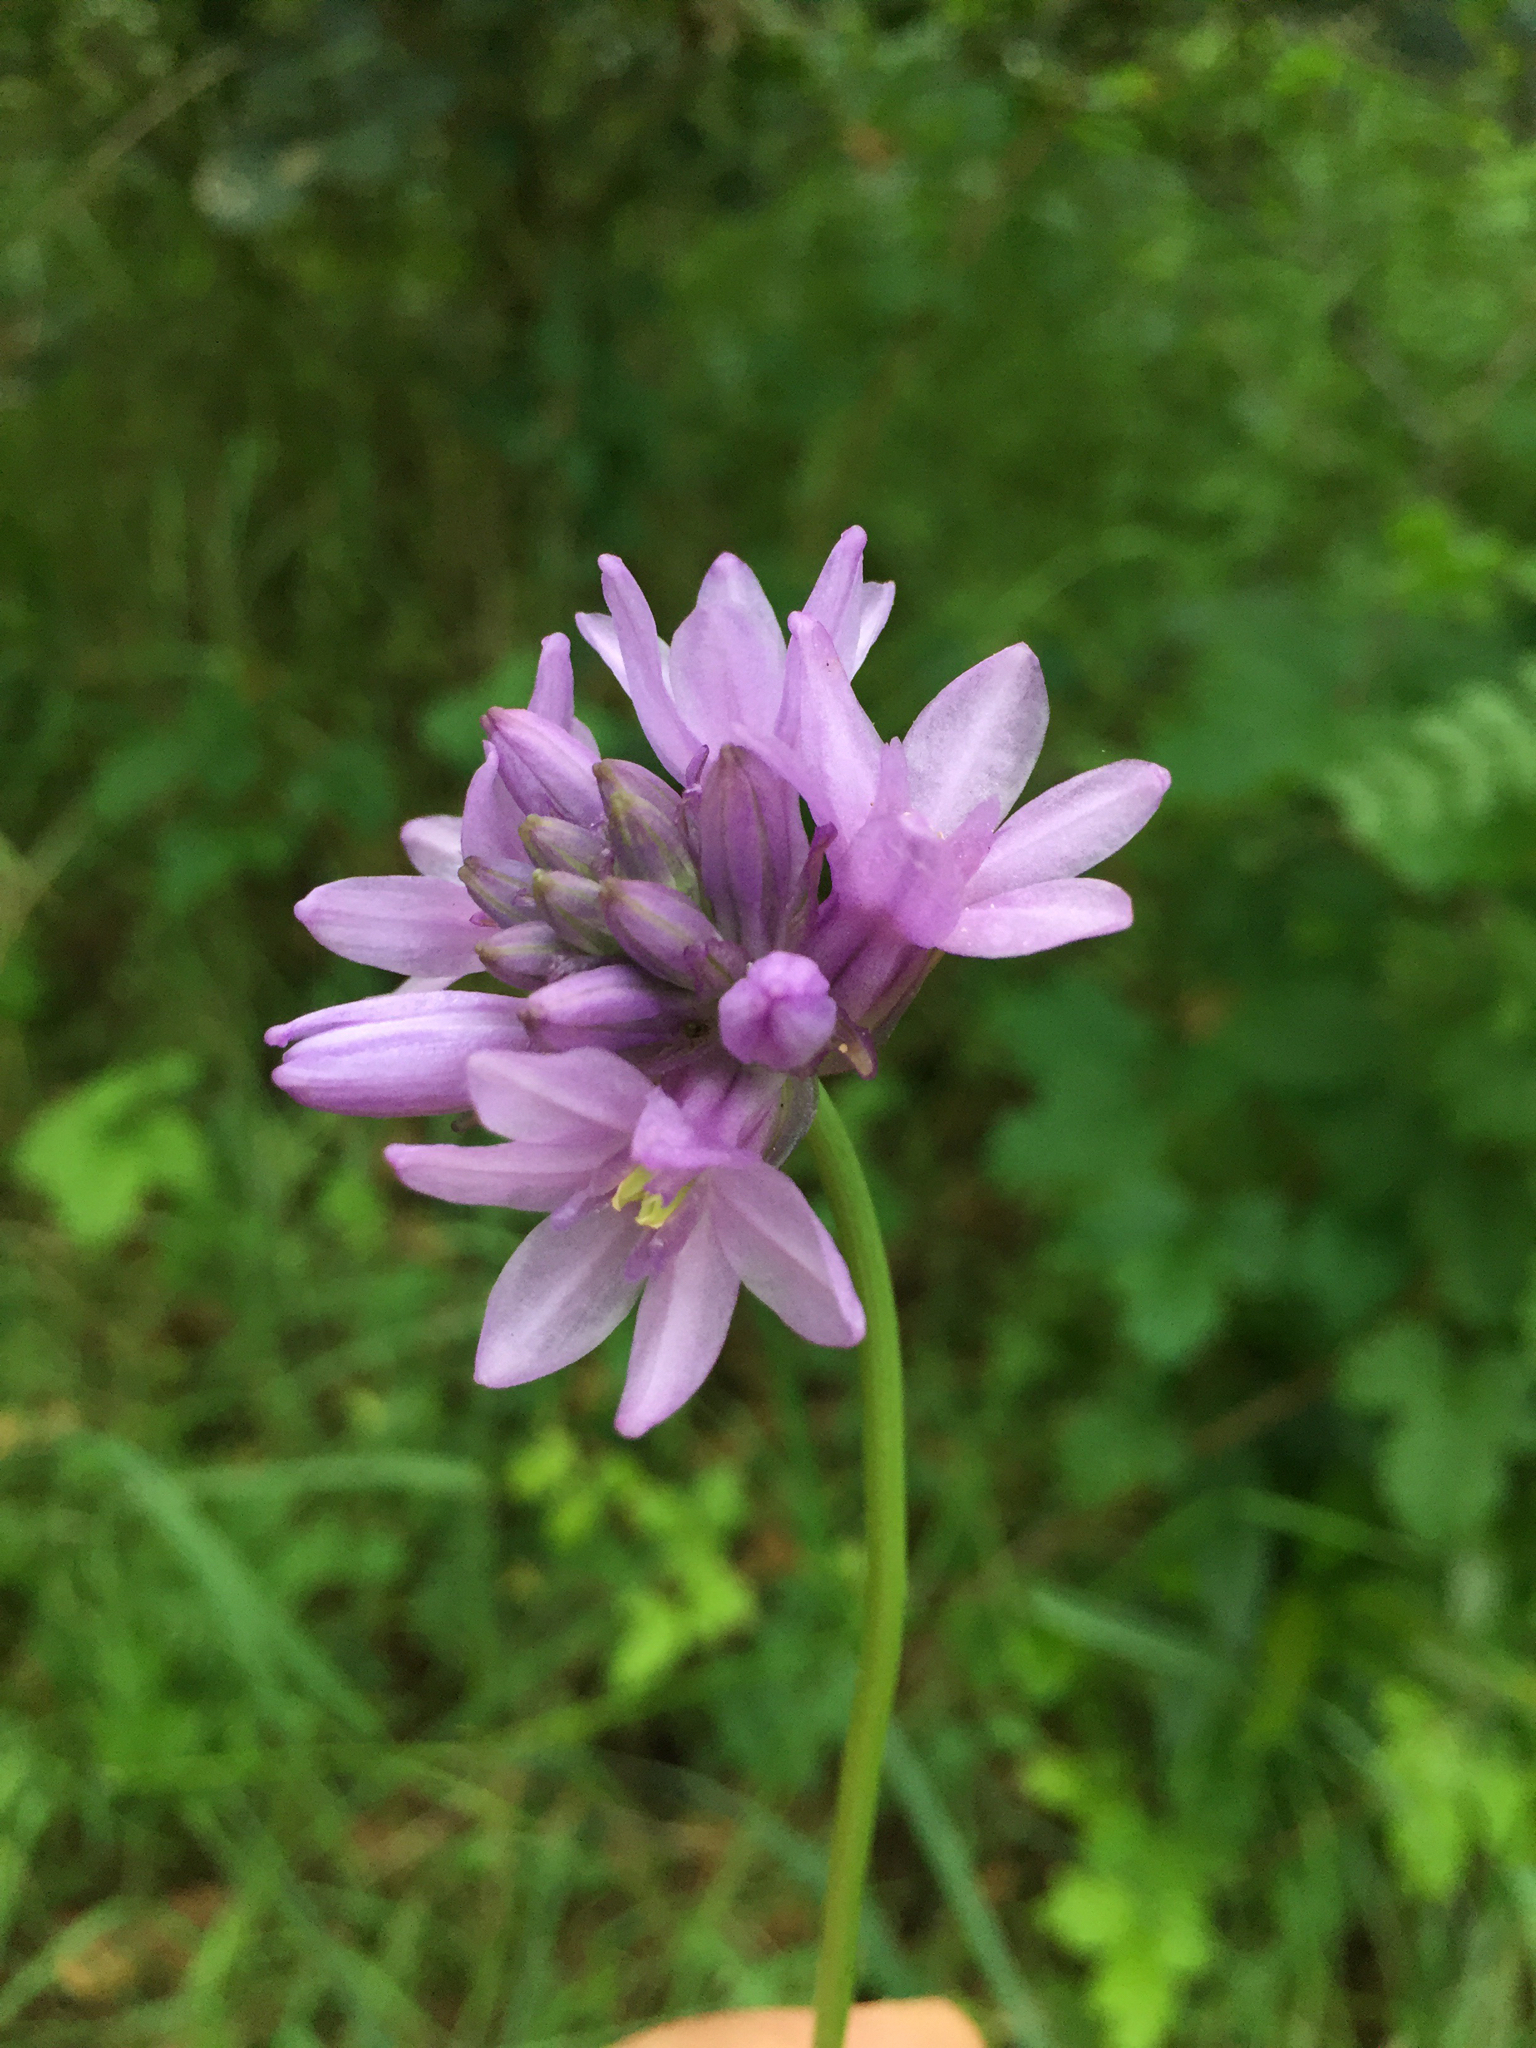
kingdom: Plantae
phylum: Tracheophyta
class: Liliopsida
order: Asparagales
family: Asparagaceae
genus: Dichelostemma
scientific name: Dichelostemma congestum
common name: Fork-tooth ookow
